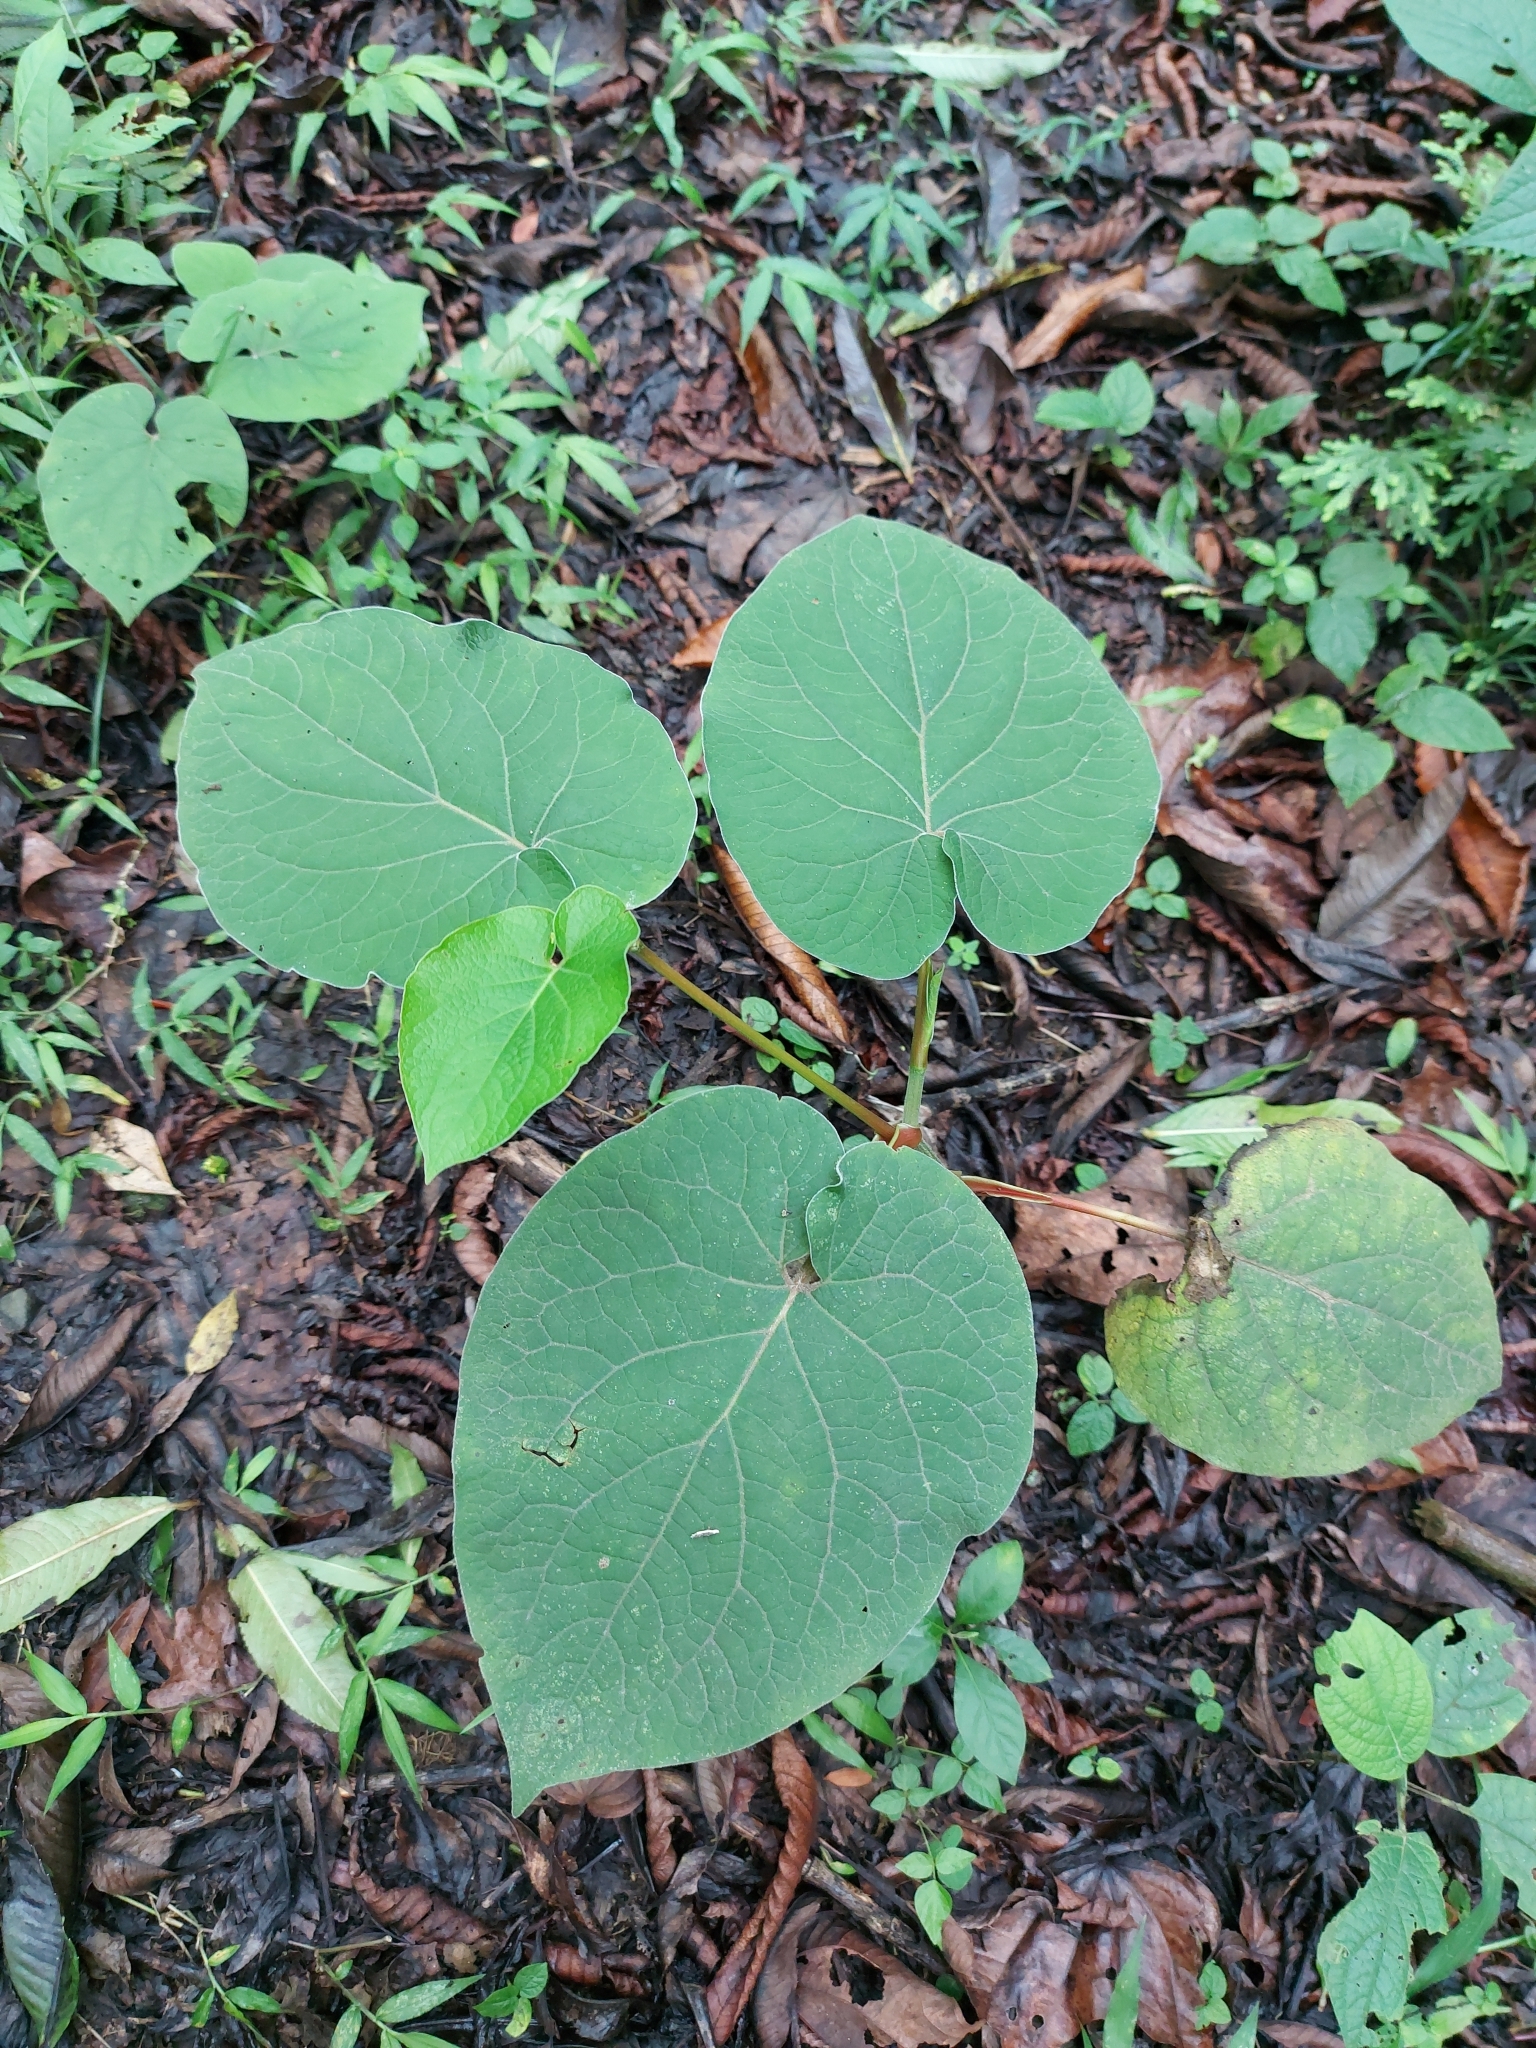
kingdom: Plantae
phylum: Tracheophyta
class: Magnoliopsida
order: Piperales
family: Piperaceae
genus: Piper
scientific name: Piper auritum
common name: Vera cruz pepper
